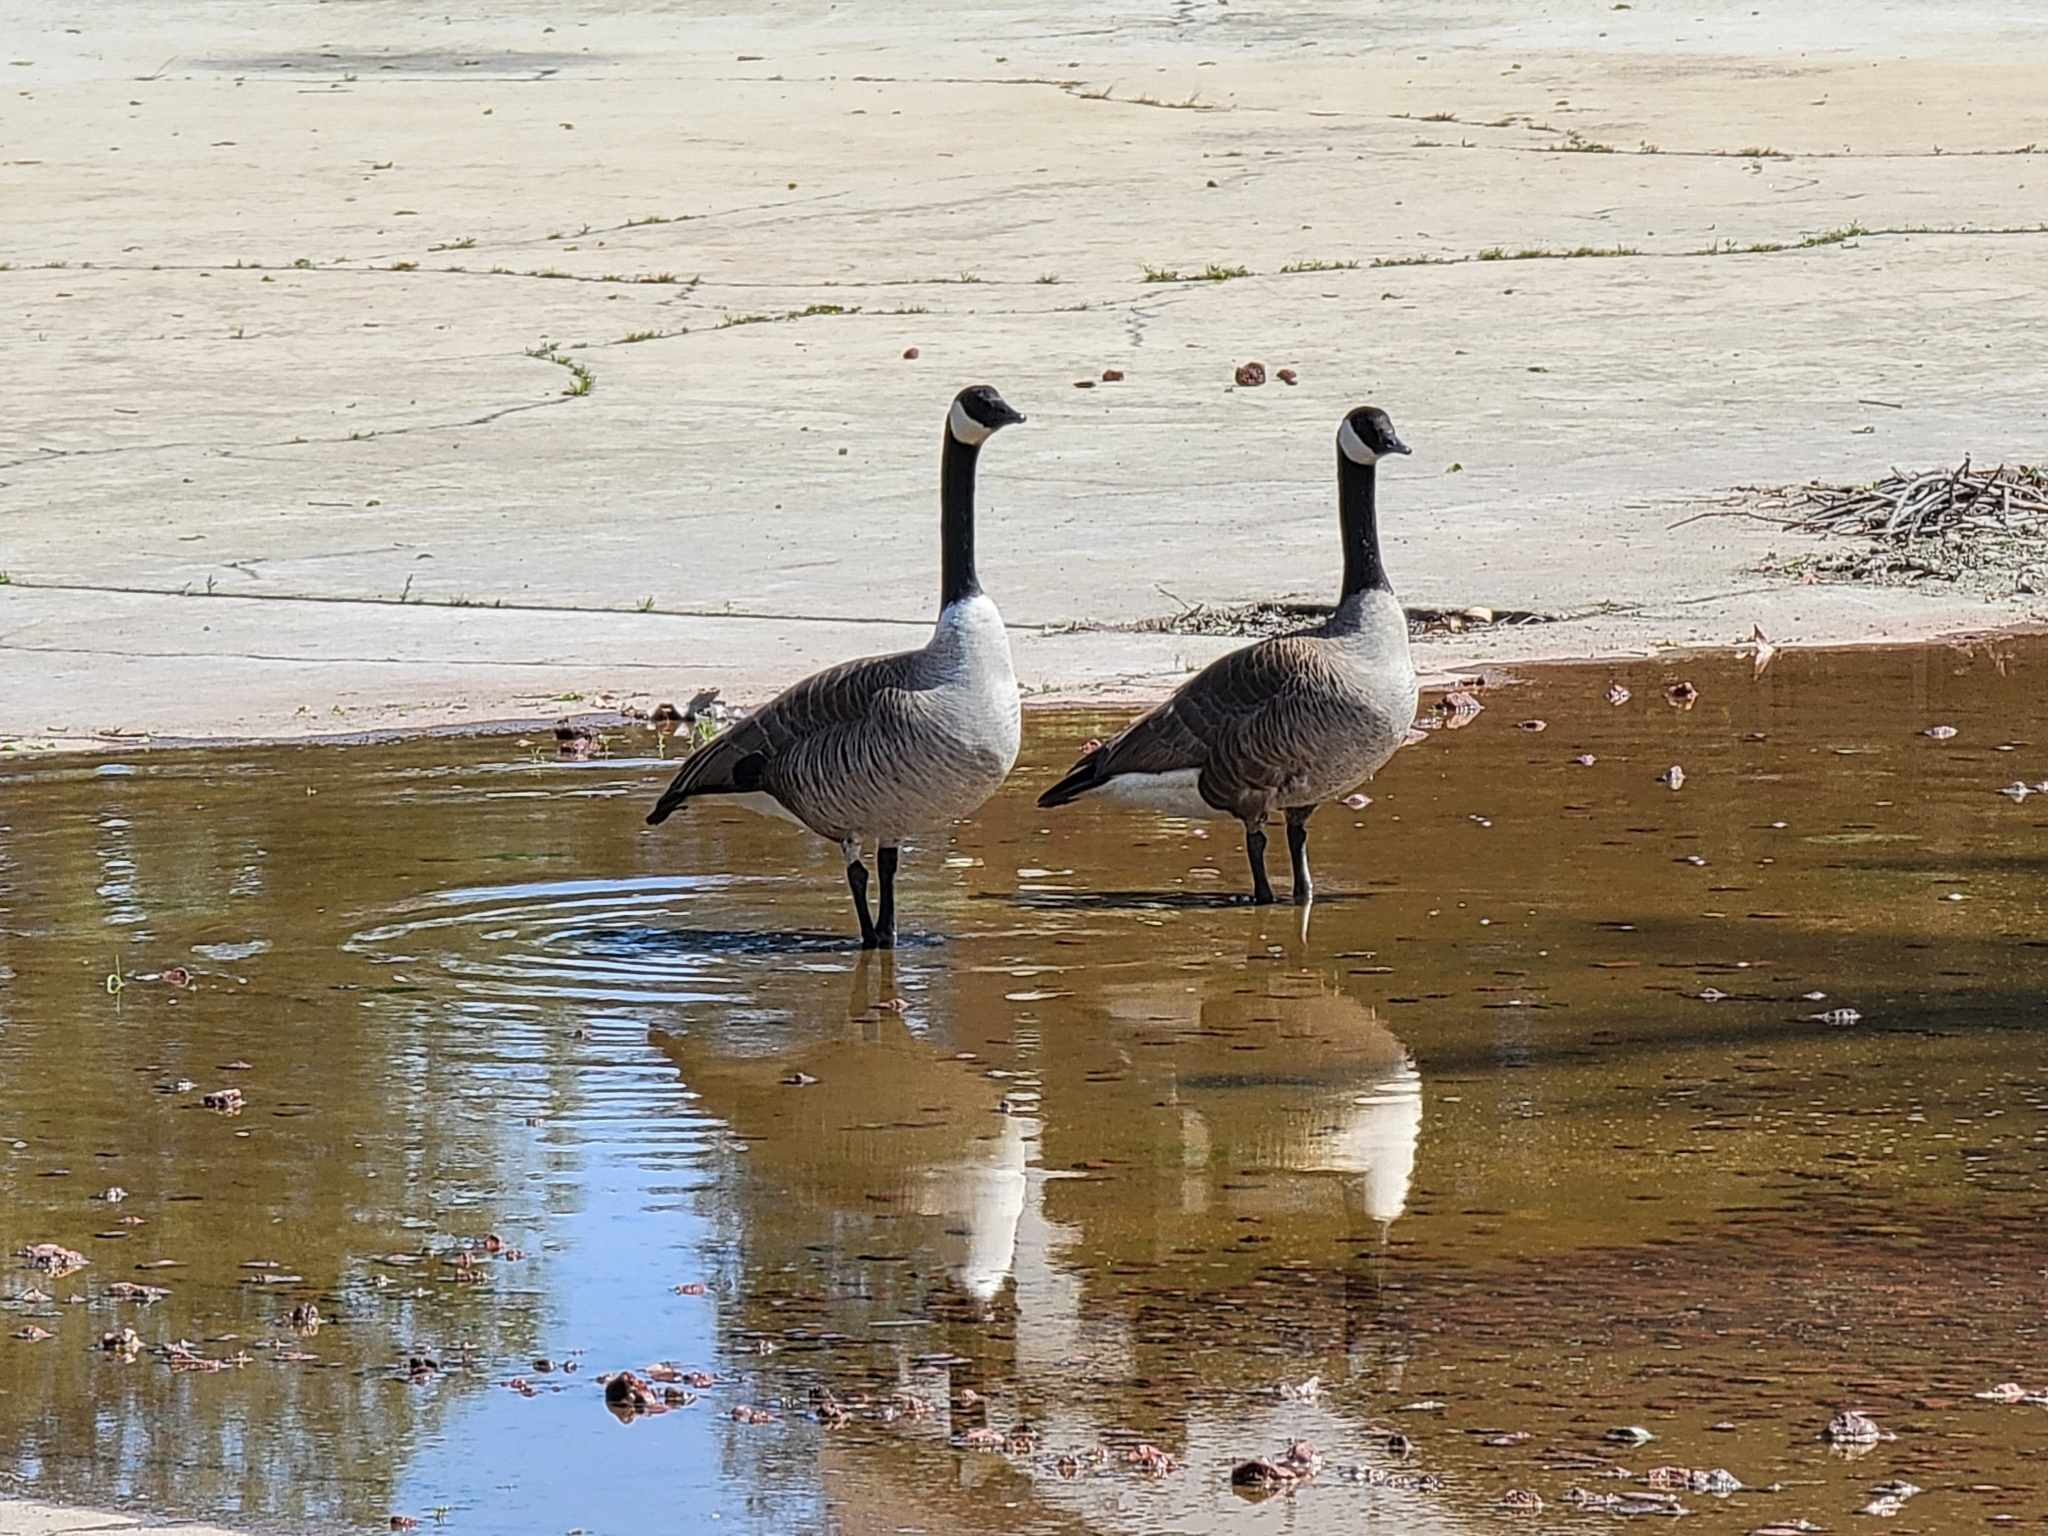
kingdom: Animalia
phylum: Chordata
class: Aves
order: Anseriformes
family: Anatidae
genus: Branta
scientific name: Branta canadensis
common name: Canada goose
